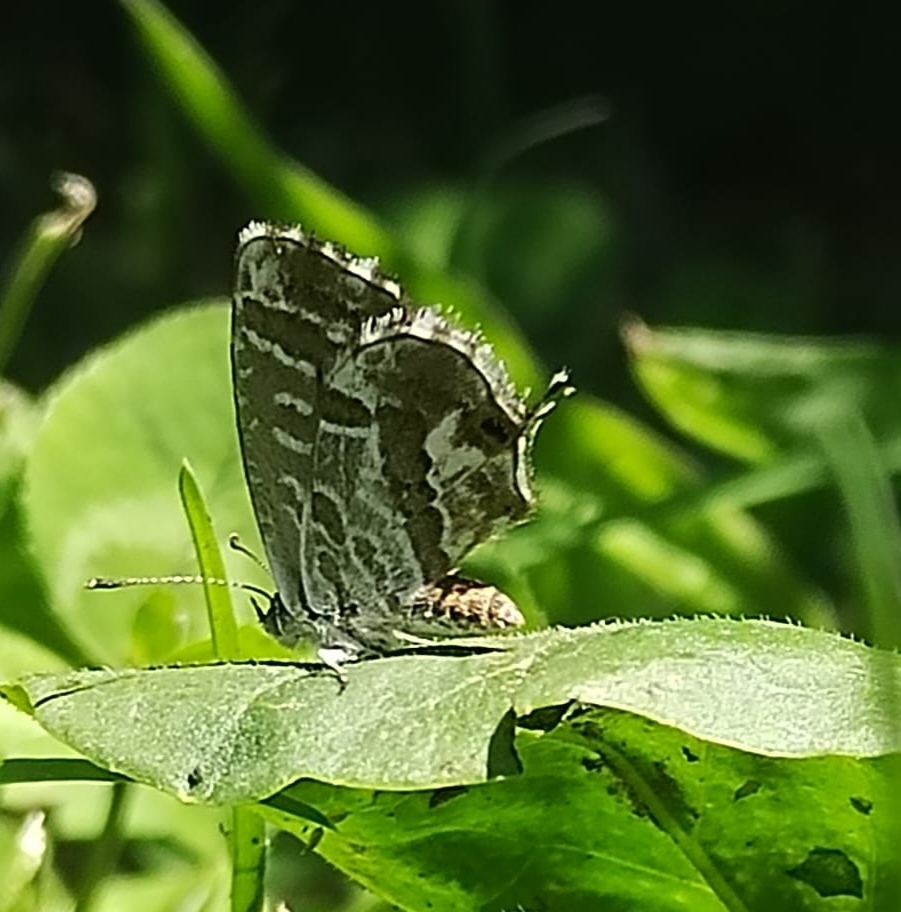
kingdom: Animalia
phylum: Arthropoda
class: Insecta
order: Lepidoptera
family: Lycaenidae
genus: Cacyreus
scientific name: Cacyreus marshalli
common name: Geranium bronze
